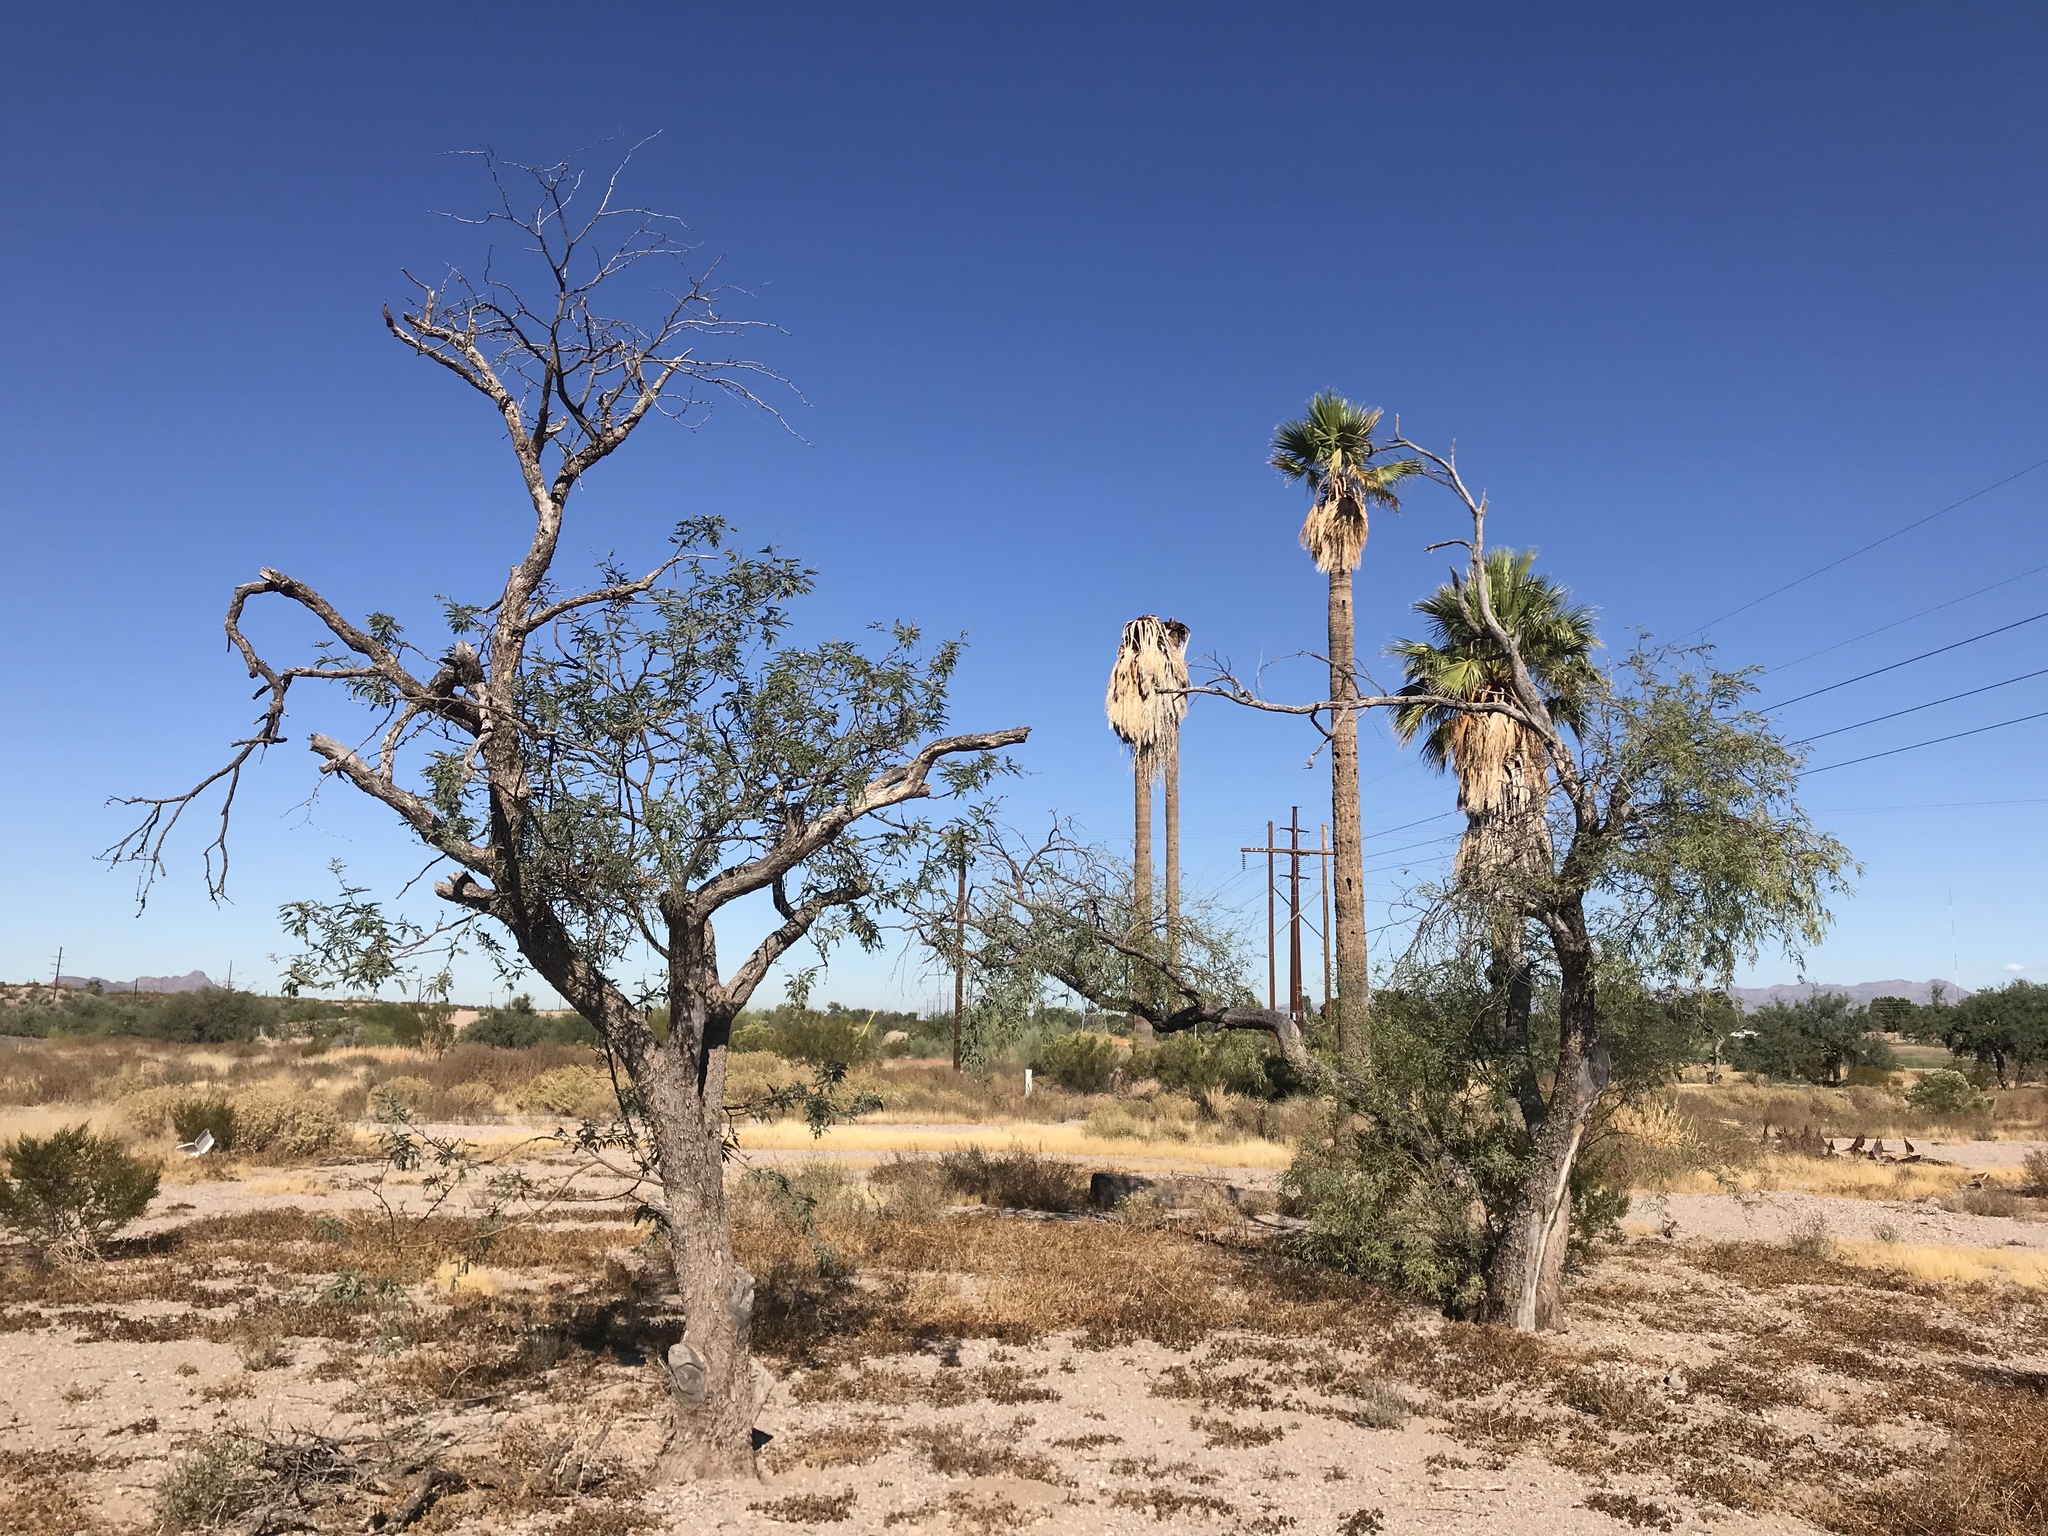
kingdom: Plantae
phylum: Tracheophyta
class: Magnoliopsida
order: Fabales
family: Fabaceae
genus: Prosopis
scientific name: Prosopis velutina
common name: Velvet mesquite
